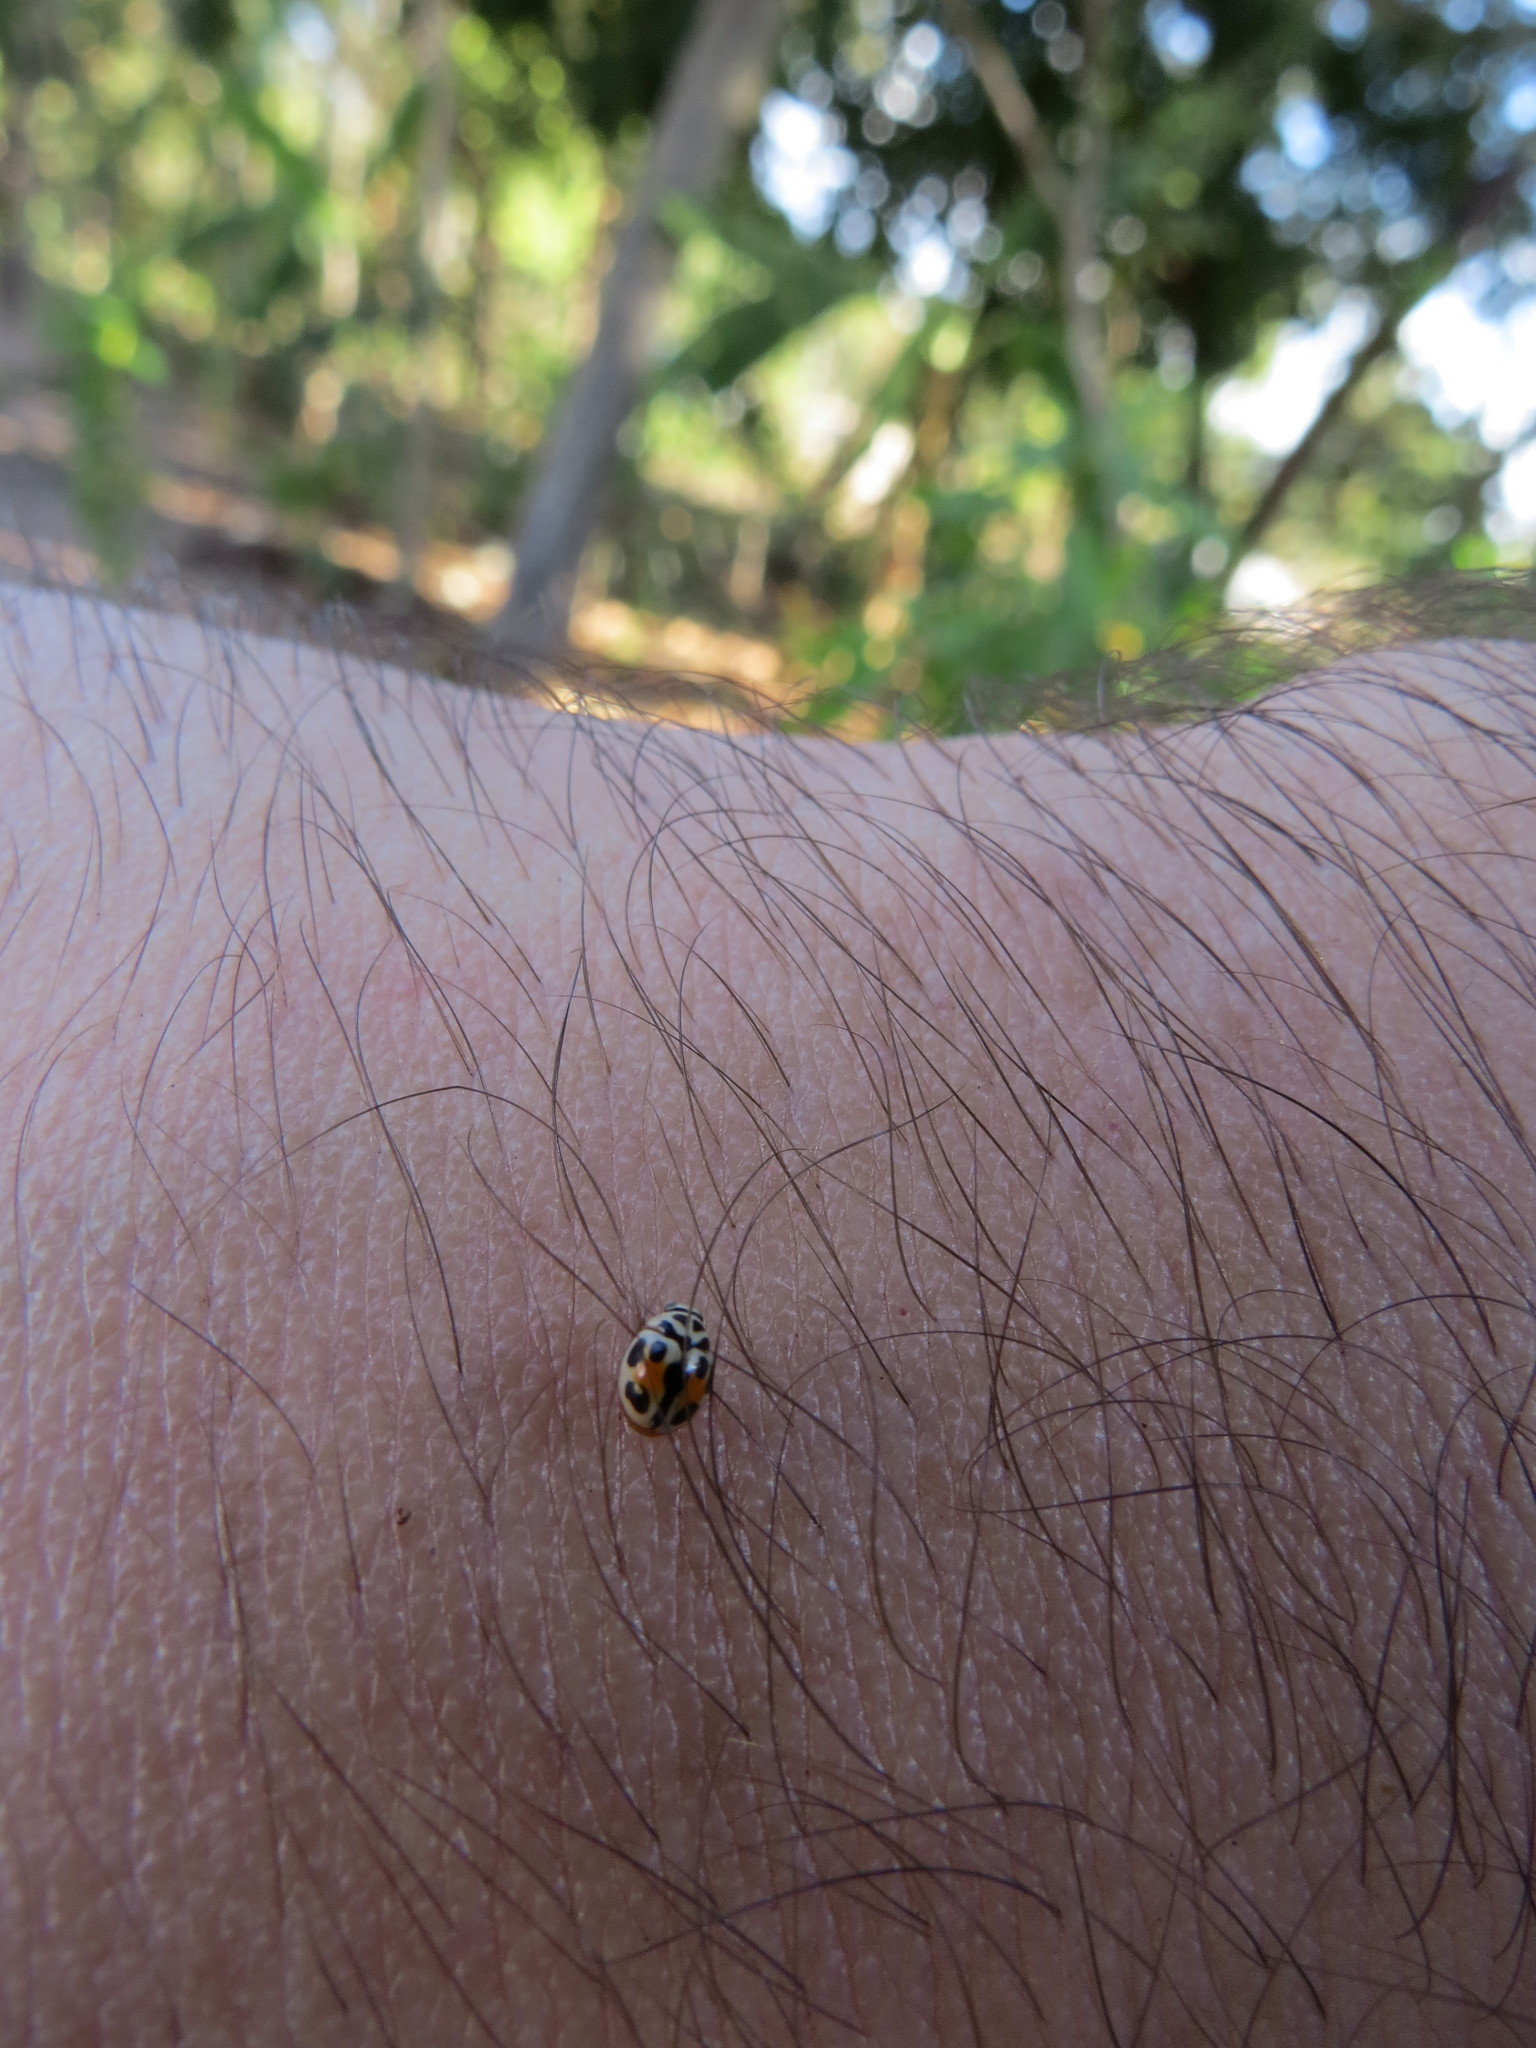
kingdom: Animalia
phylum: Arthropoda
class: Insecta
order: Coleoptera
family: Coccinellidae
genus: Tenuisvalvae
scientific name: Tenuisvalvae
